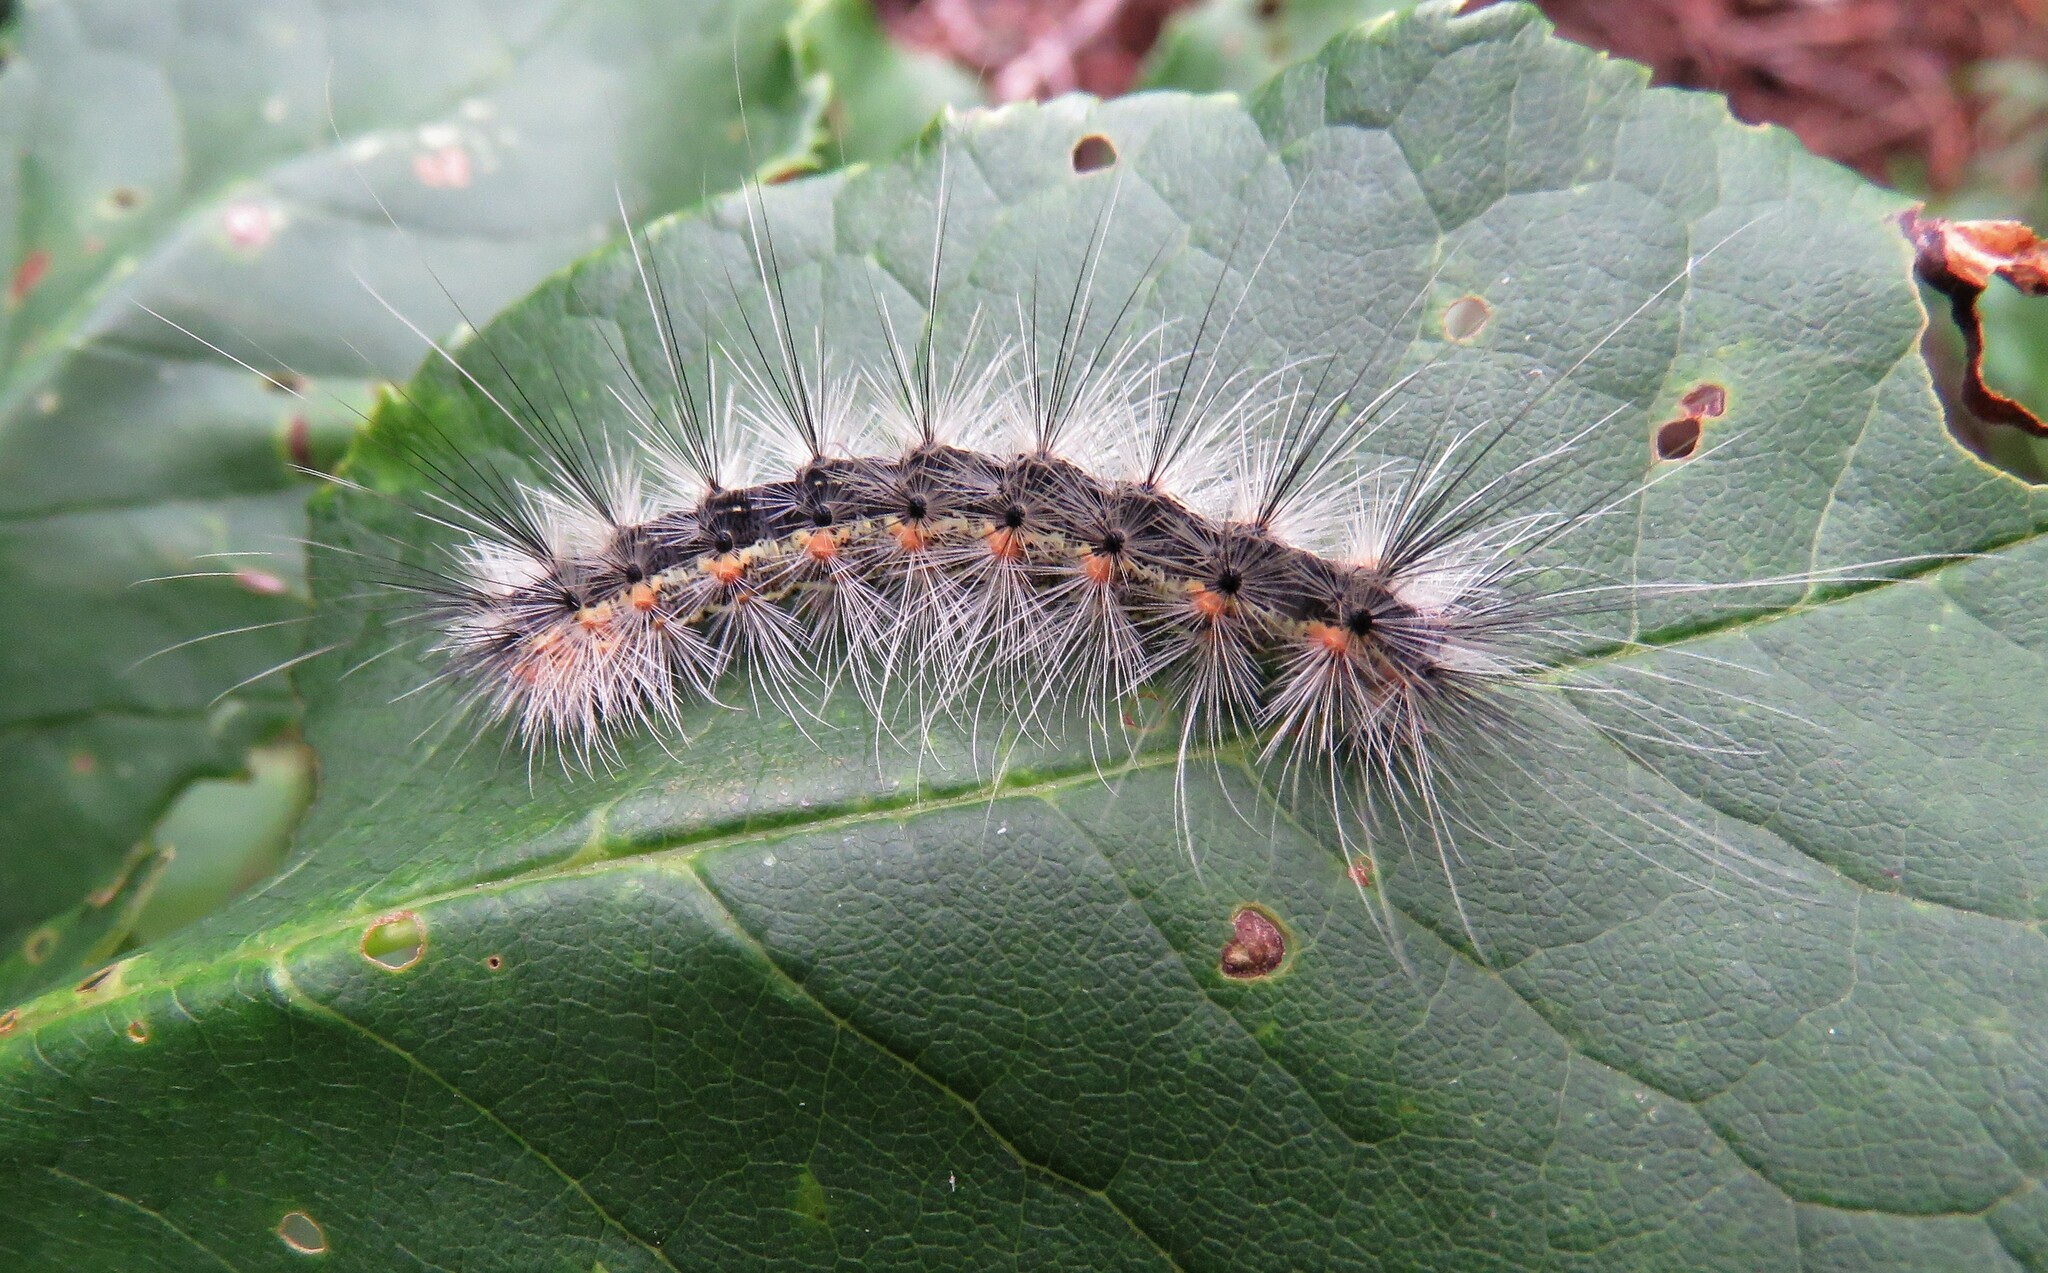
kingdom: Animalia
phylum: Arthropoda
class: Insecta
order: Lepidoptera
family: Erebidae
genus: Hyphantria
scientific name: Hyphantria cunea
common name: American white moth
